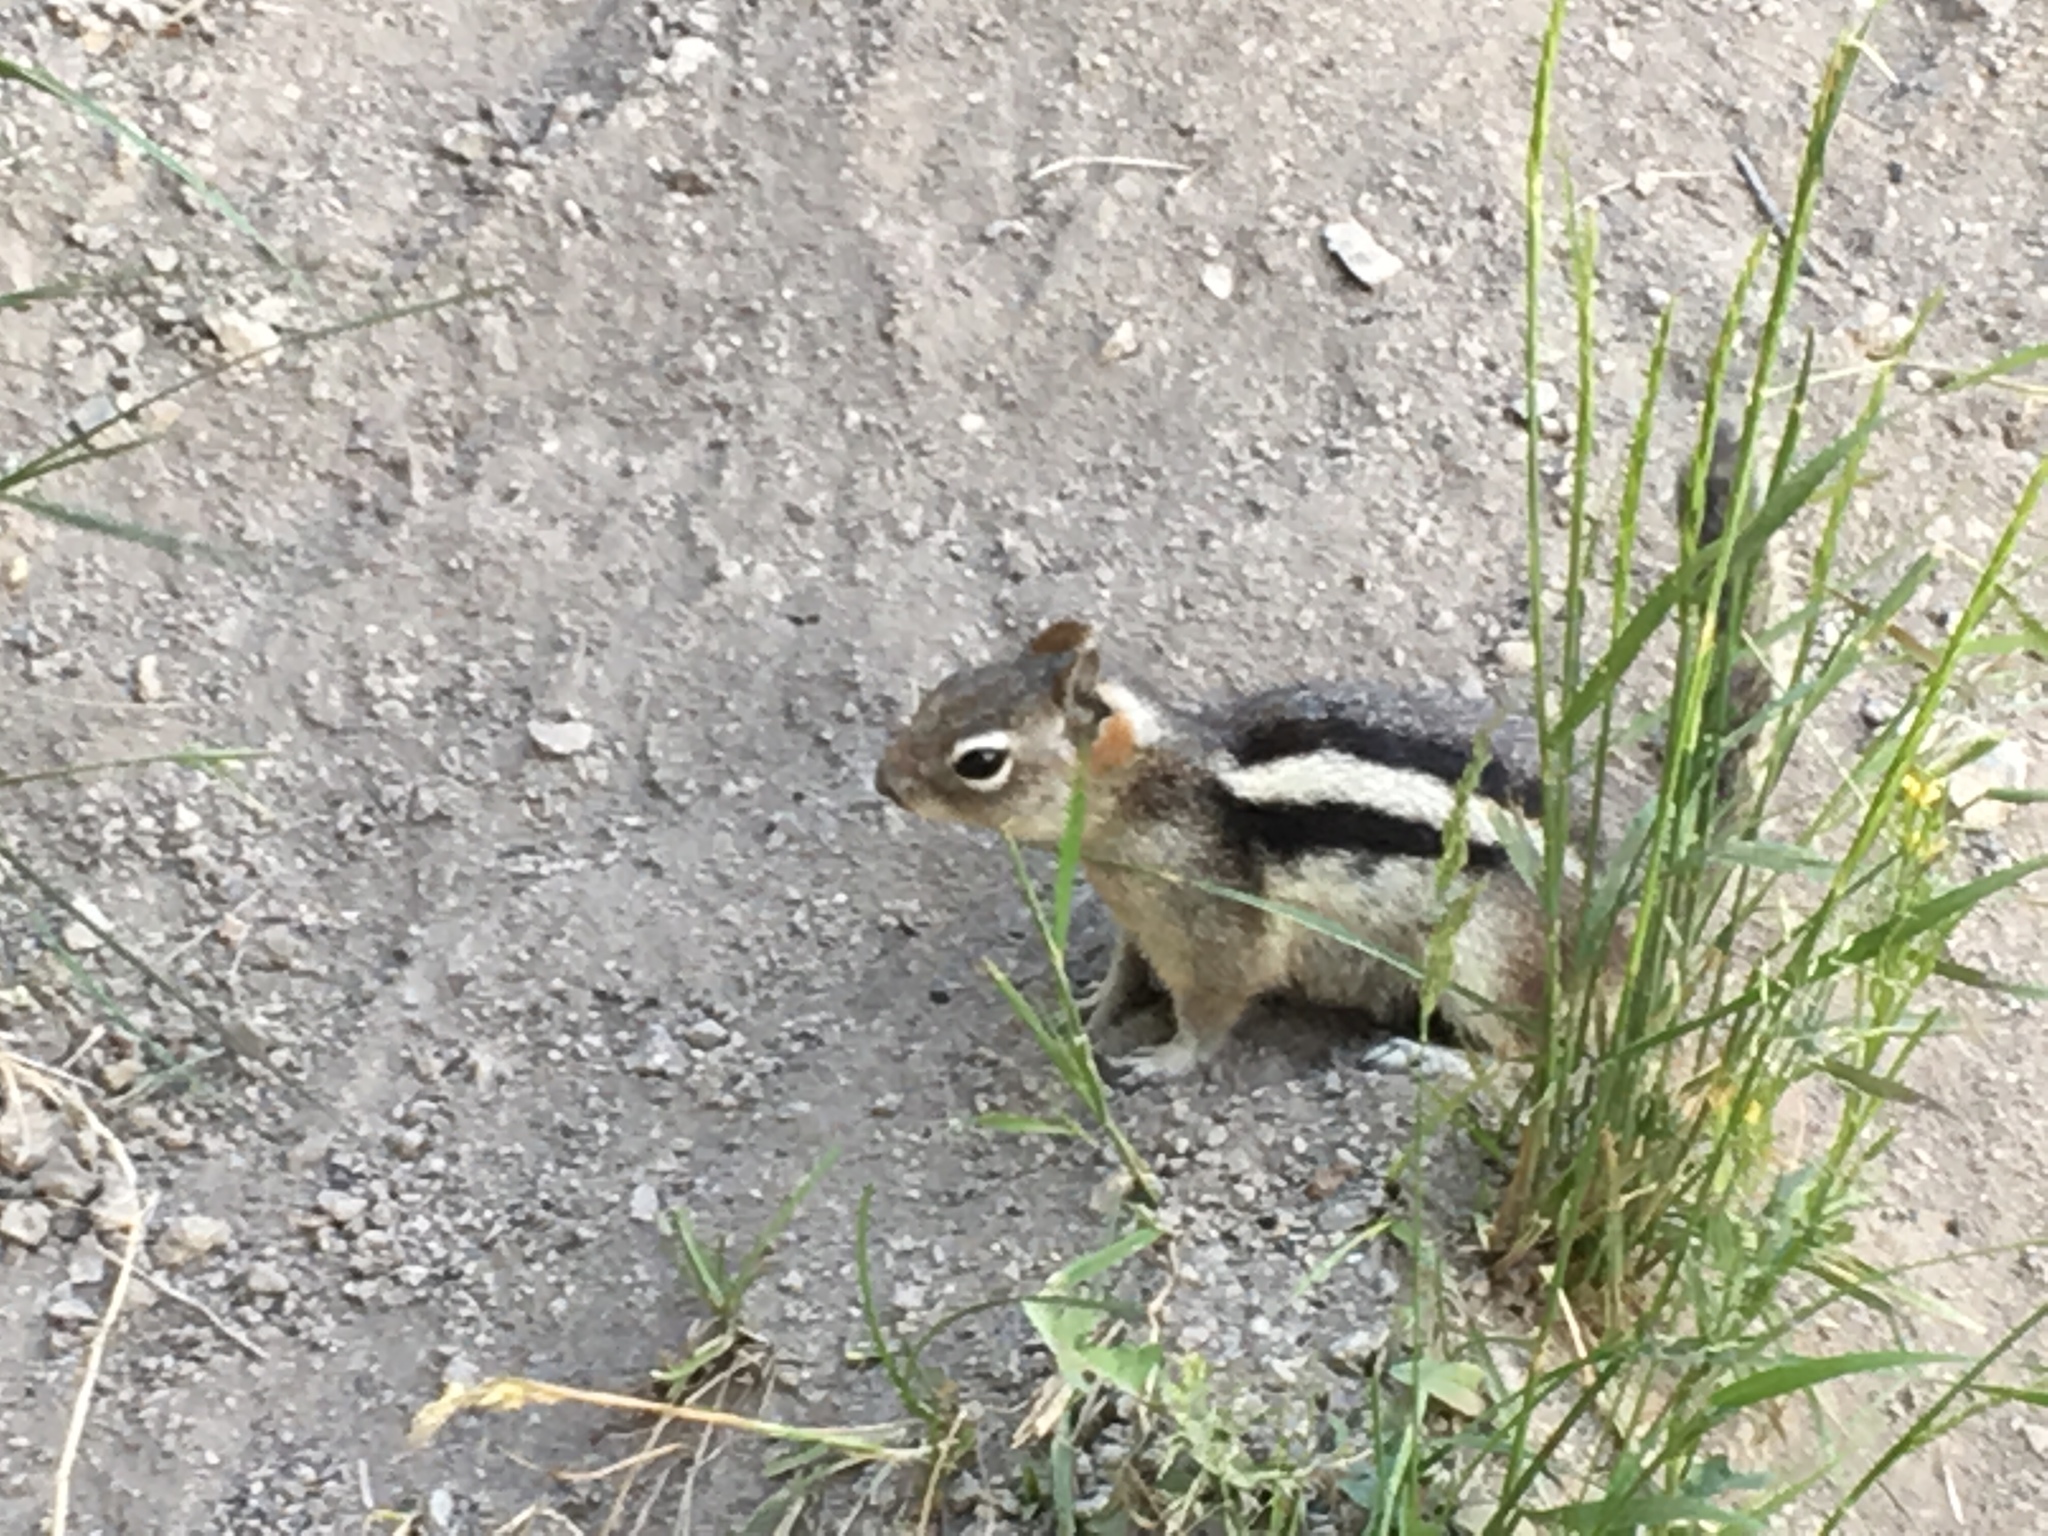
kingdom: Animalia
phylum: Chordata
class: Mammalia
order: Rodentia
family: Sciuridae
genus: Callospermophilus
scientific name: Callospermophilus lateralis
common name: Golden-mantled ground squirrel
